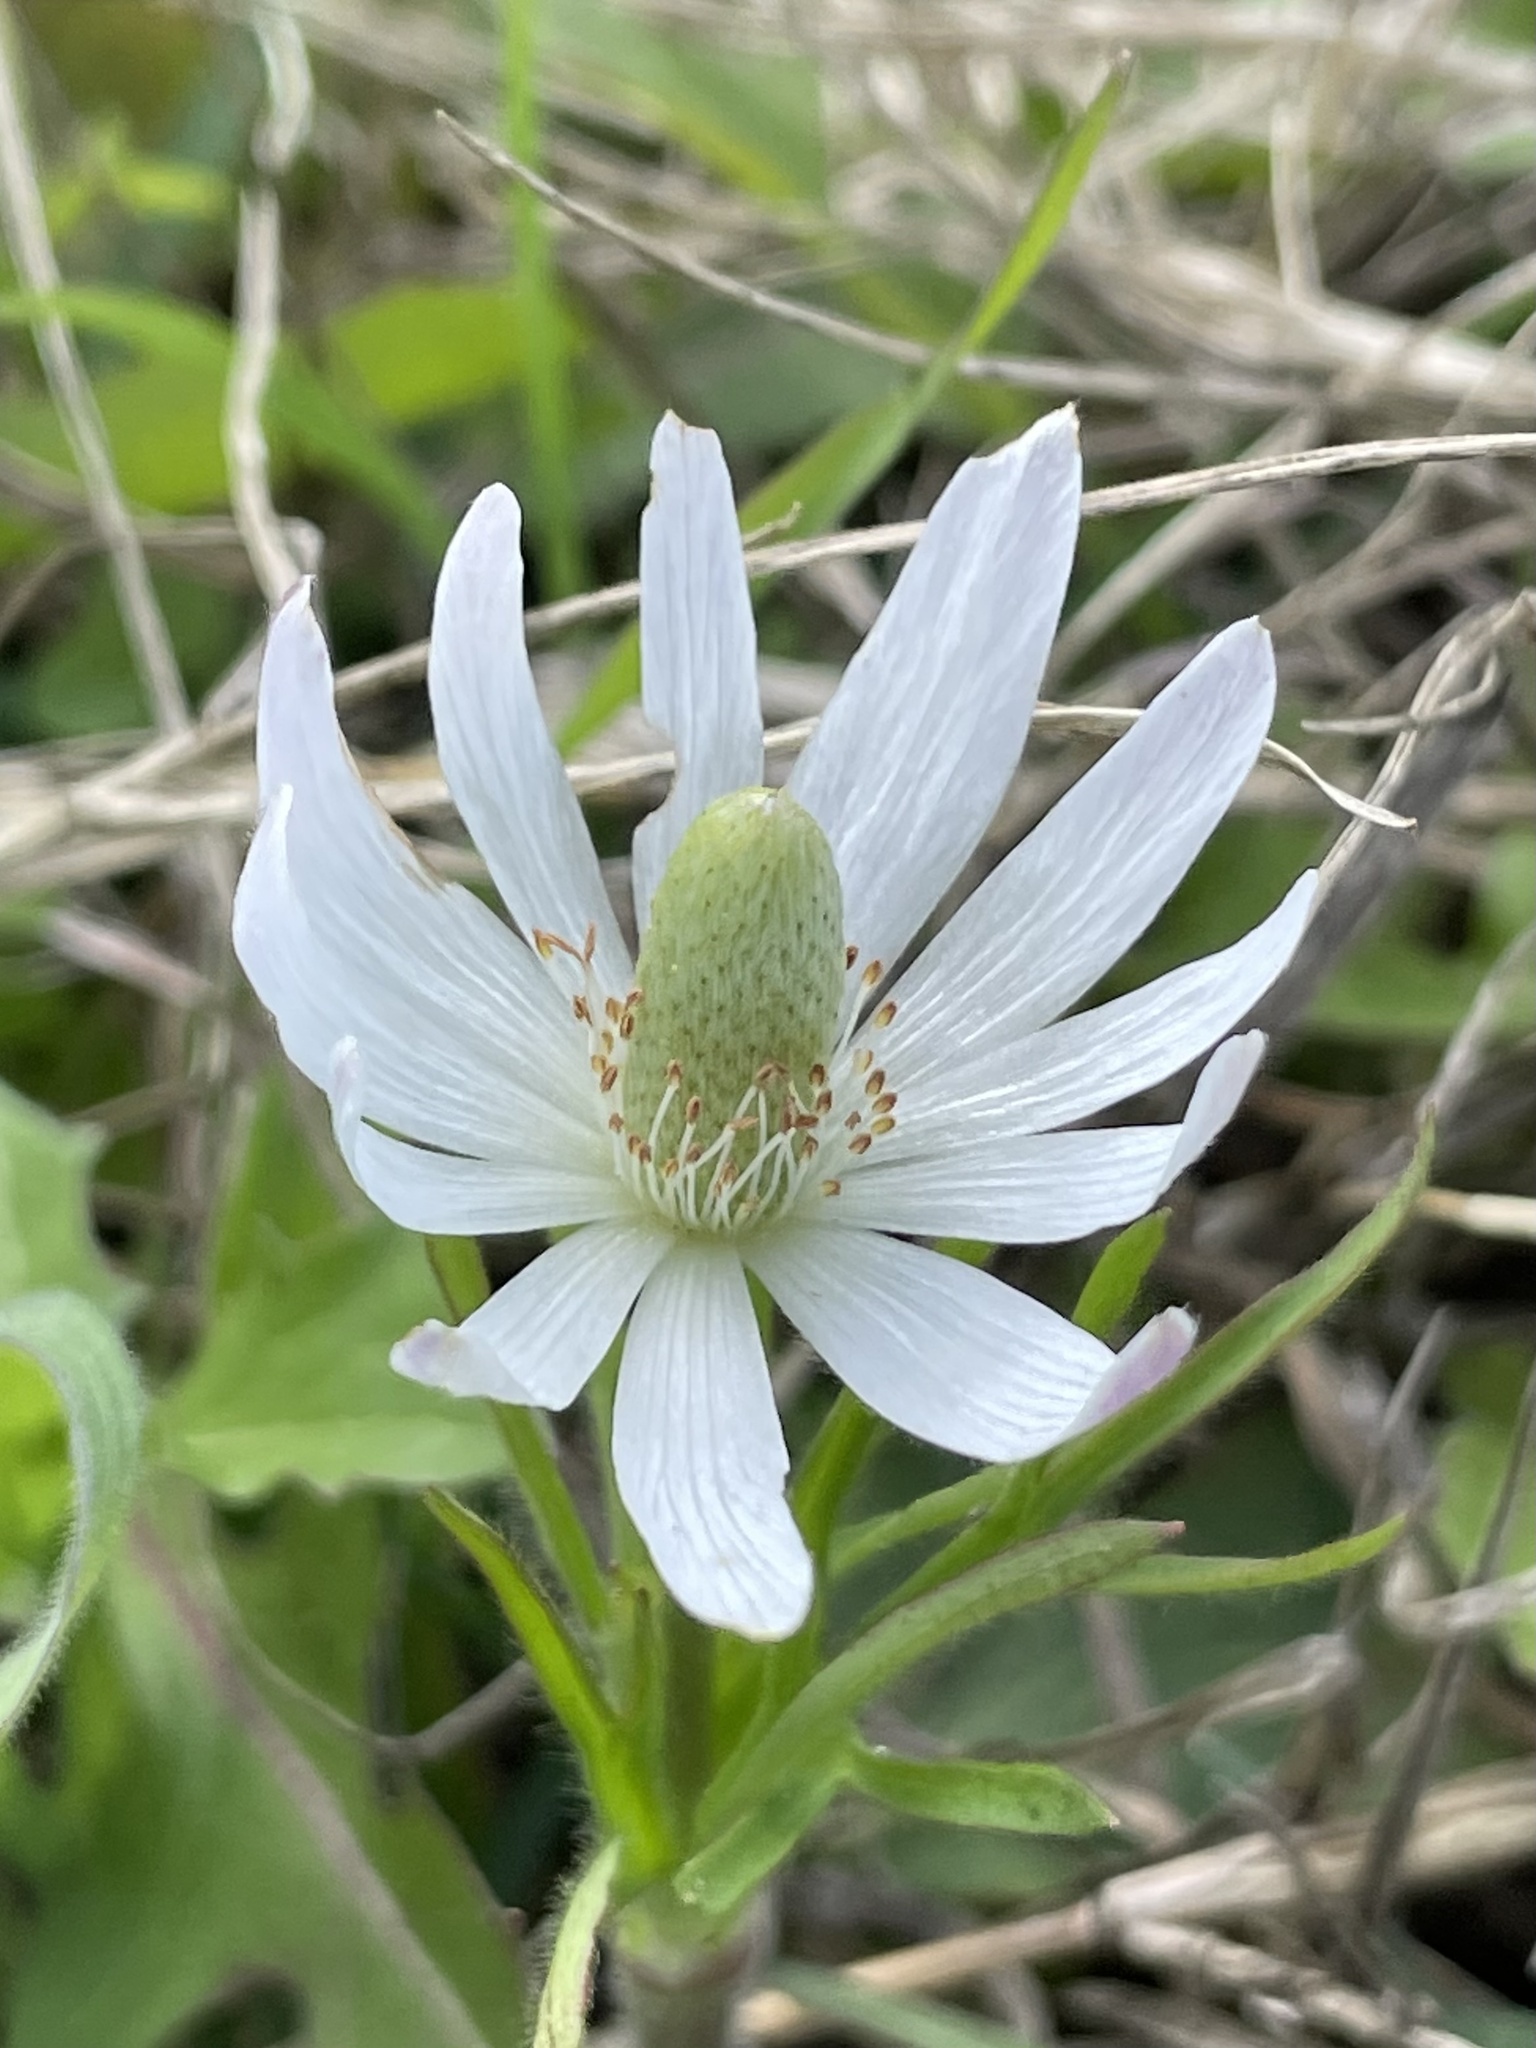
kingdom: Plantae
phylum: Tracheophyta
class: Magnoliopsida
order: Ranunculales
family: Ranunculaceae
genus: Anemone
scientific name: Anemone berlandieri
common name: Ten-petal anemone
